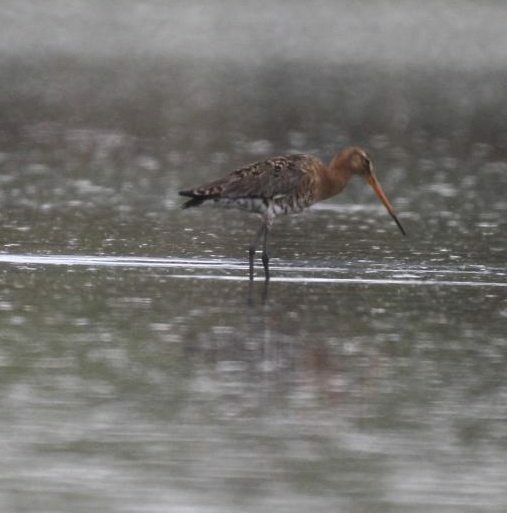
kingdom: Animalia
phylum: Chordata
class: Aves
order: Charadriiformes
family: Scolopacidae
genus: Limosa
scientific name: Limosa limosa
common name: Black-tailed godwit
